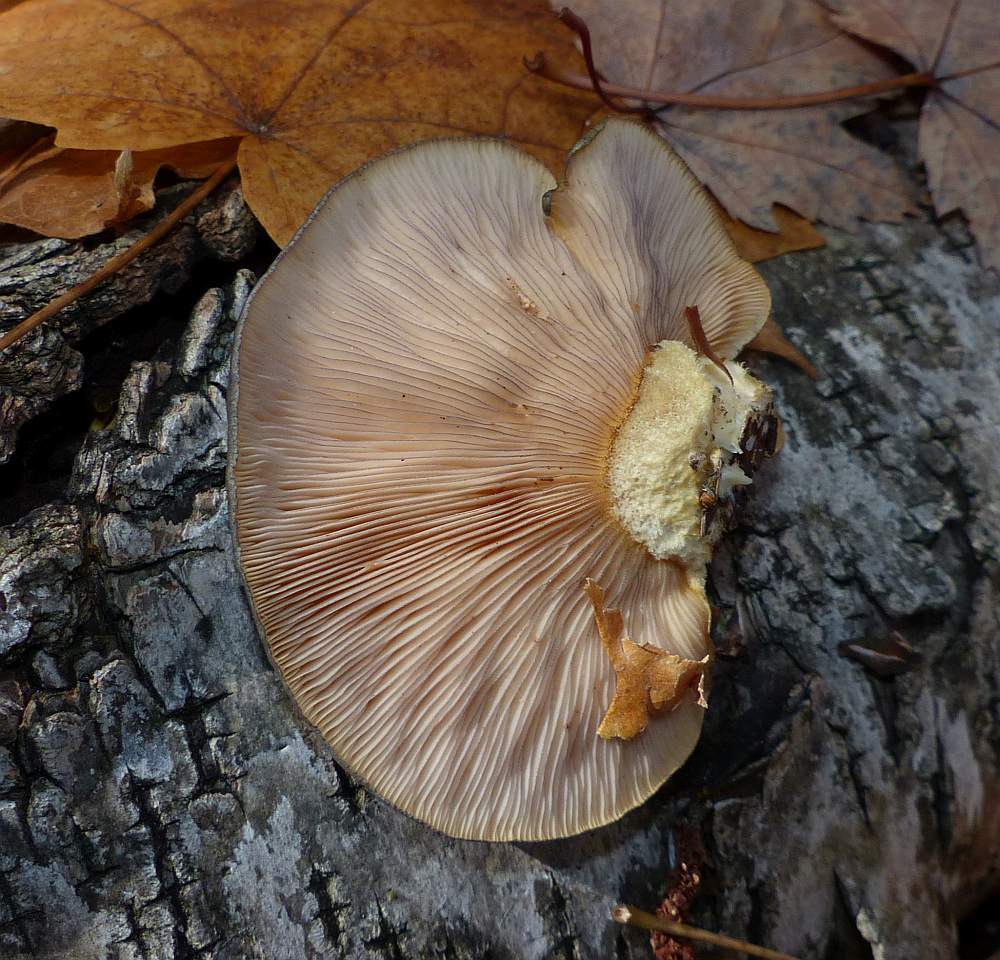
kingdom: Fungi
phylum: Basidiomycota
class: Agaricomycetes
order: Agaricales
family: Sarcomyxaceae
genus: Sarcomyxa
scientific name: Sarcomyxa serotina
